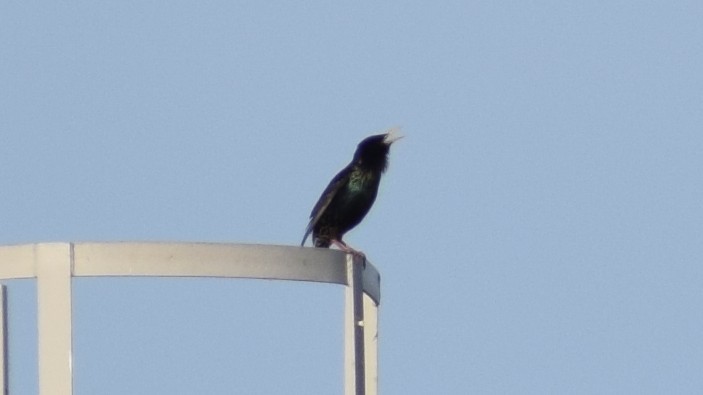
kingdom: Animalia
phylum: Chordata
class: Aves
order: Passeriformes
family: Sturnidae
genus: Sturnus
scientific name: Sturnus vulgaris
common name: Common starling
